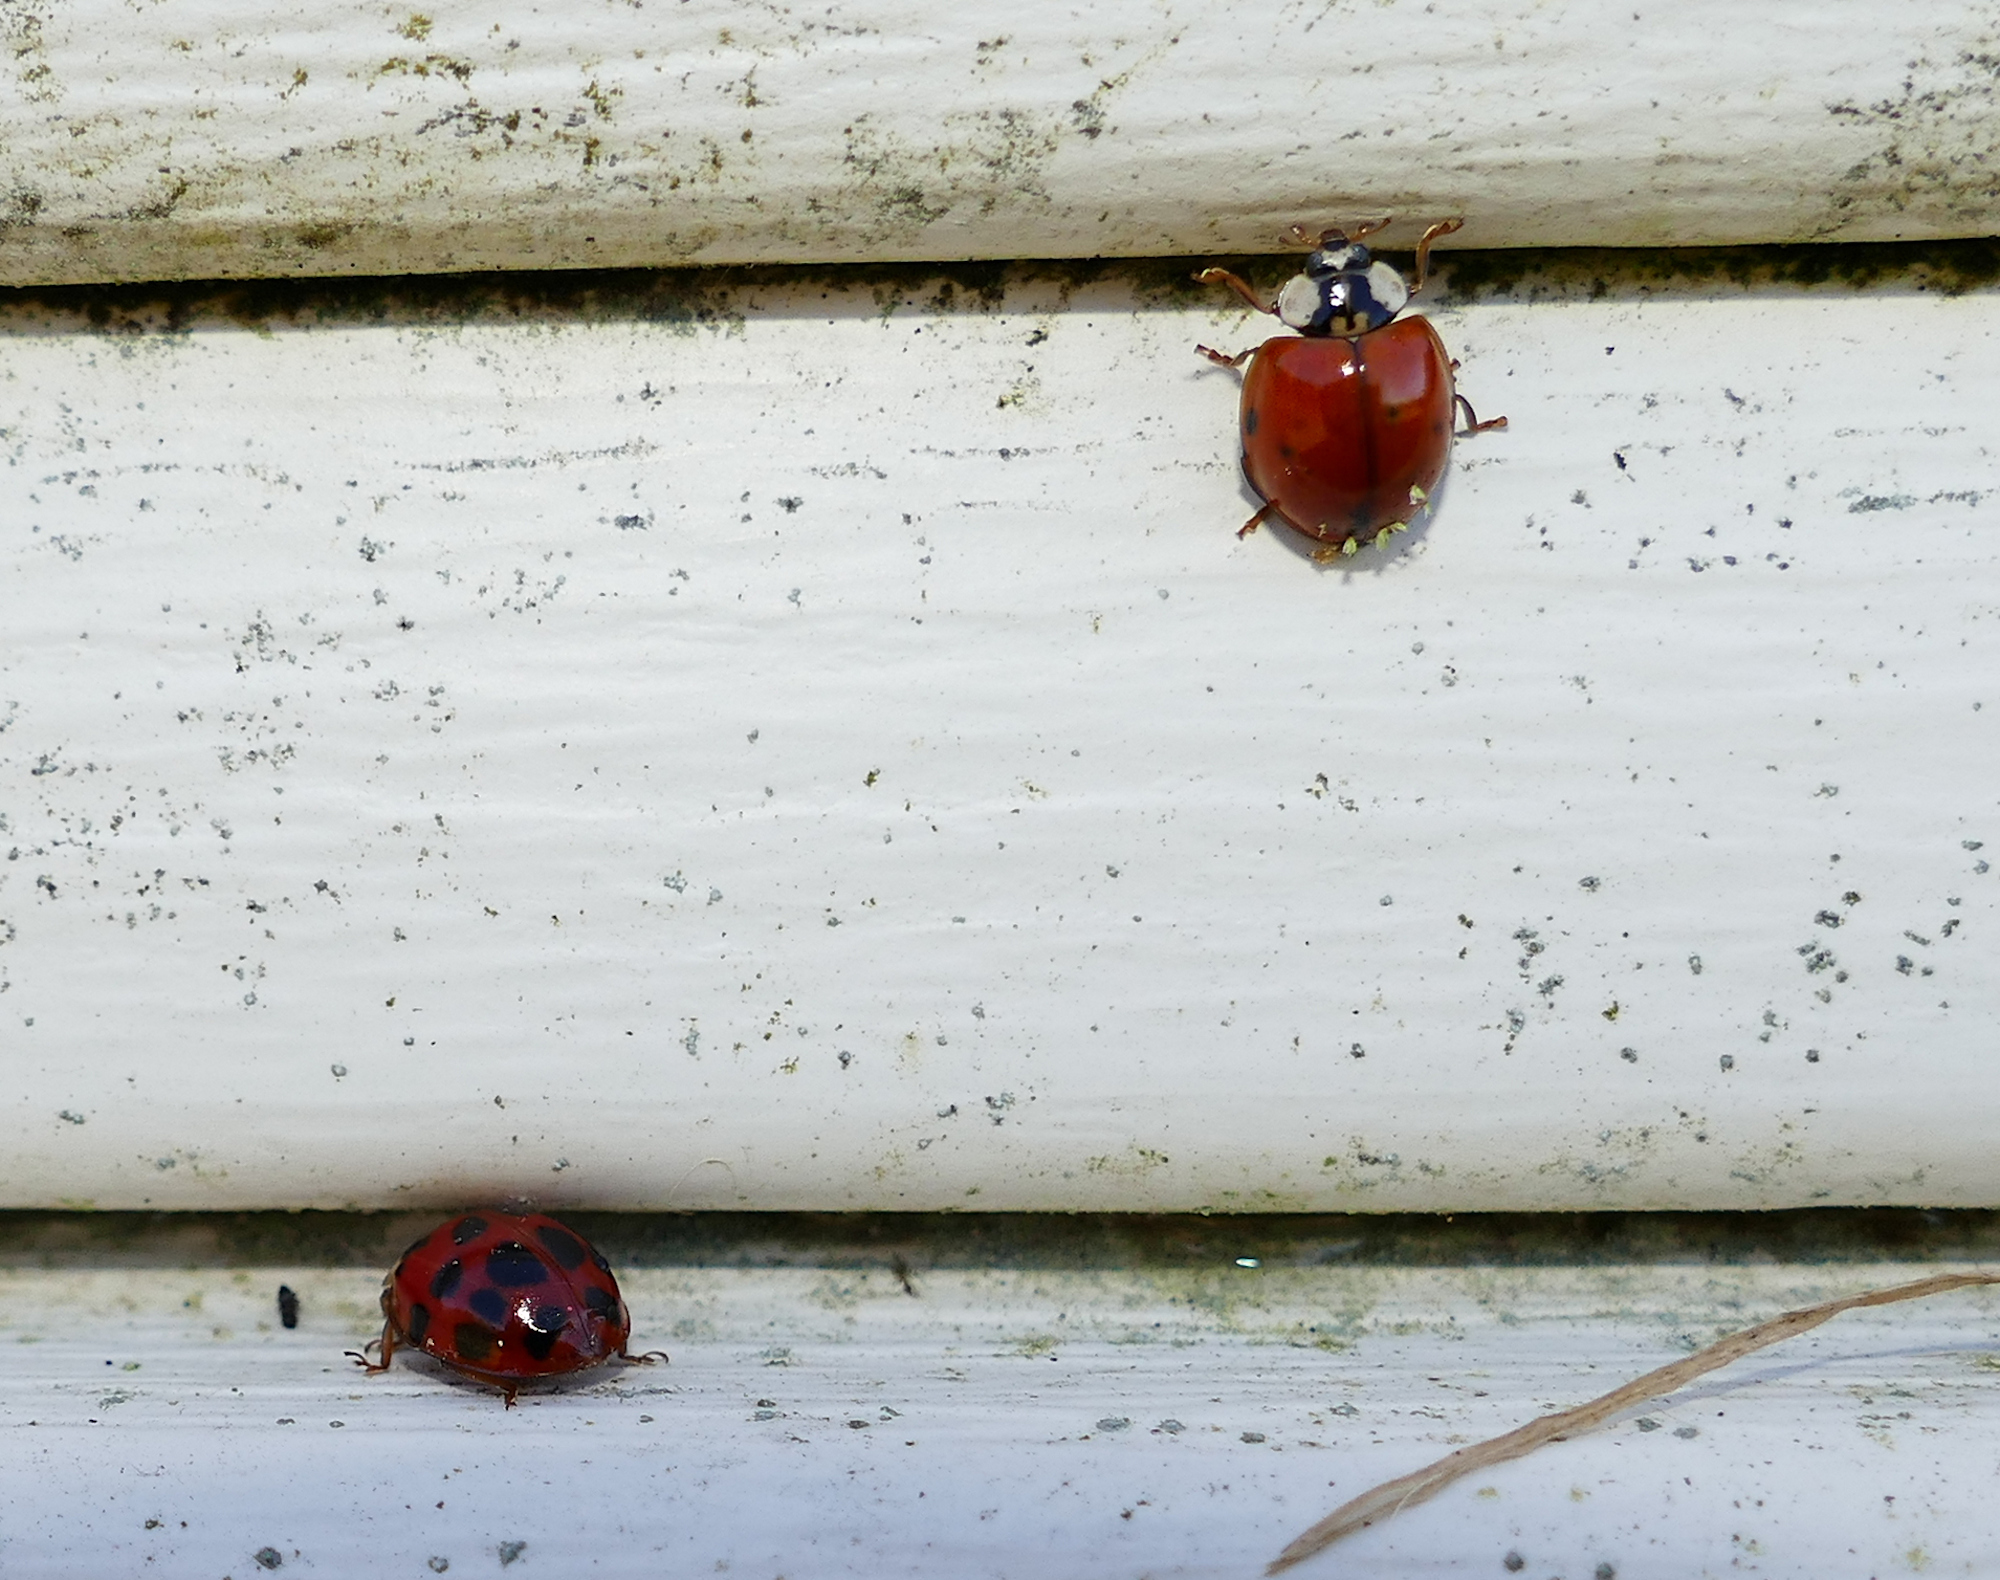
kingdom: Animalia
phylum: Arthropoda
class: Insecta
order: Coleoptera
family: Coccinellidae
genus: Harmonia
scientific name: Harmonia axyridis
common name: Harlequin ladybird
